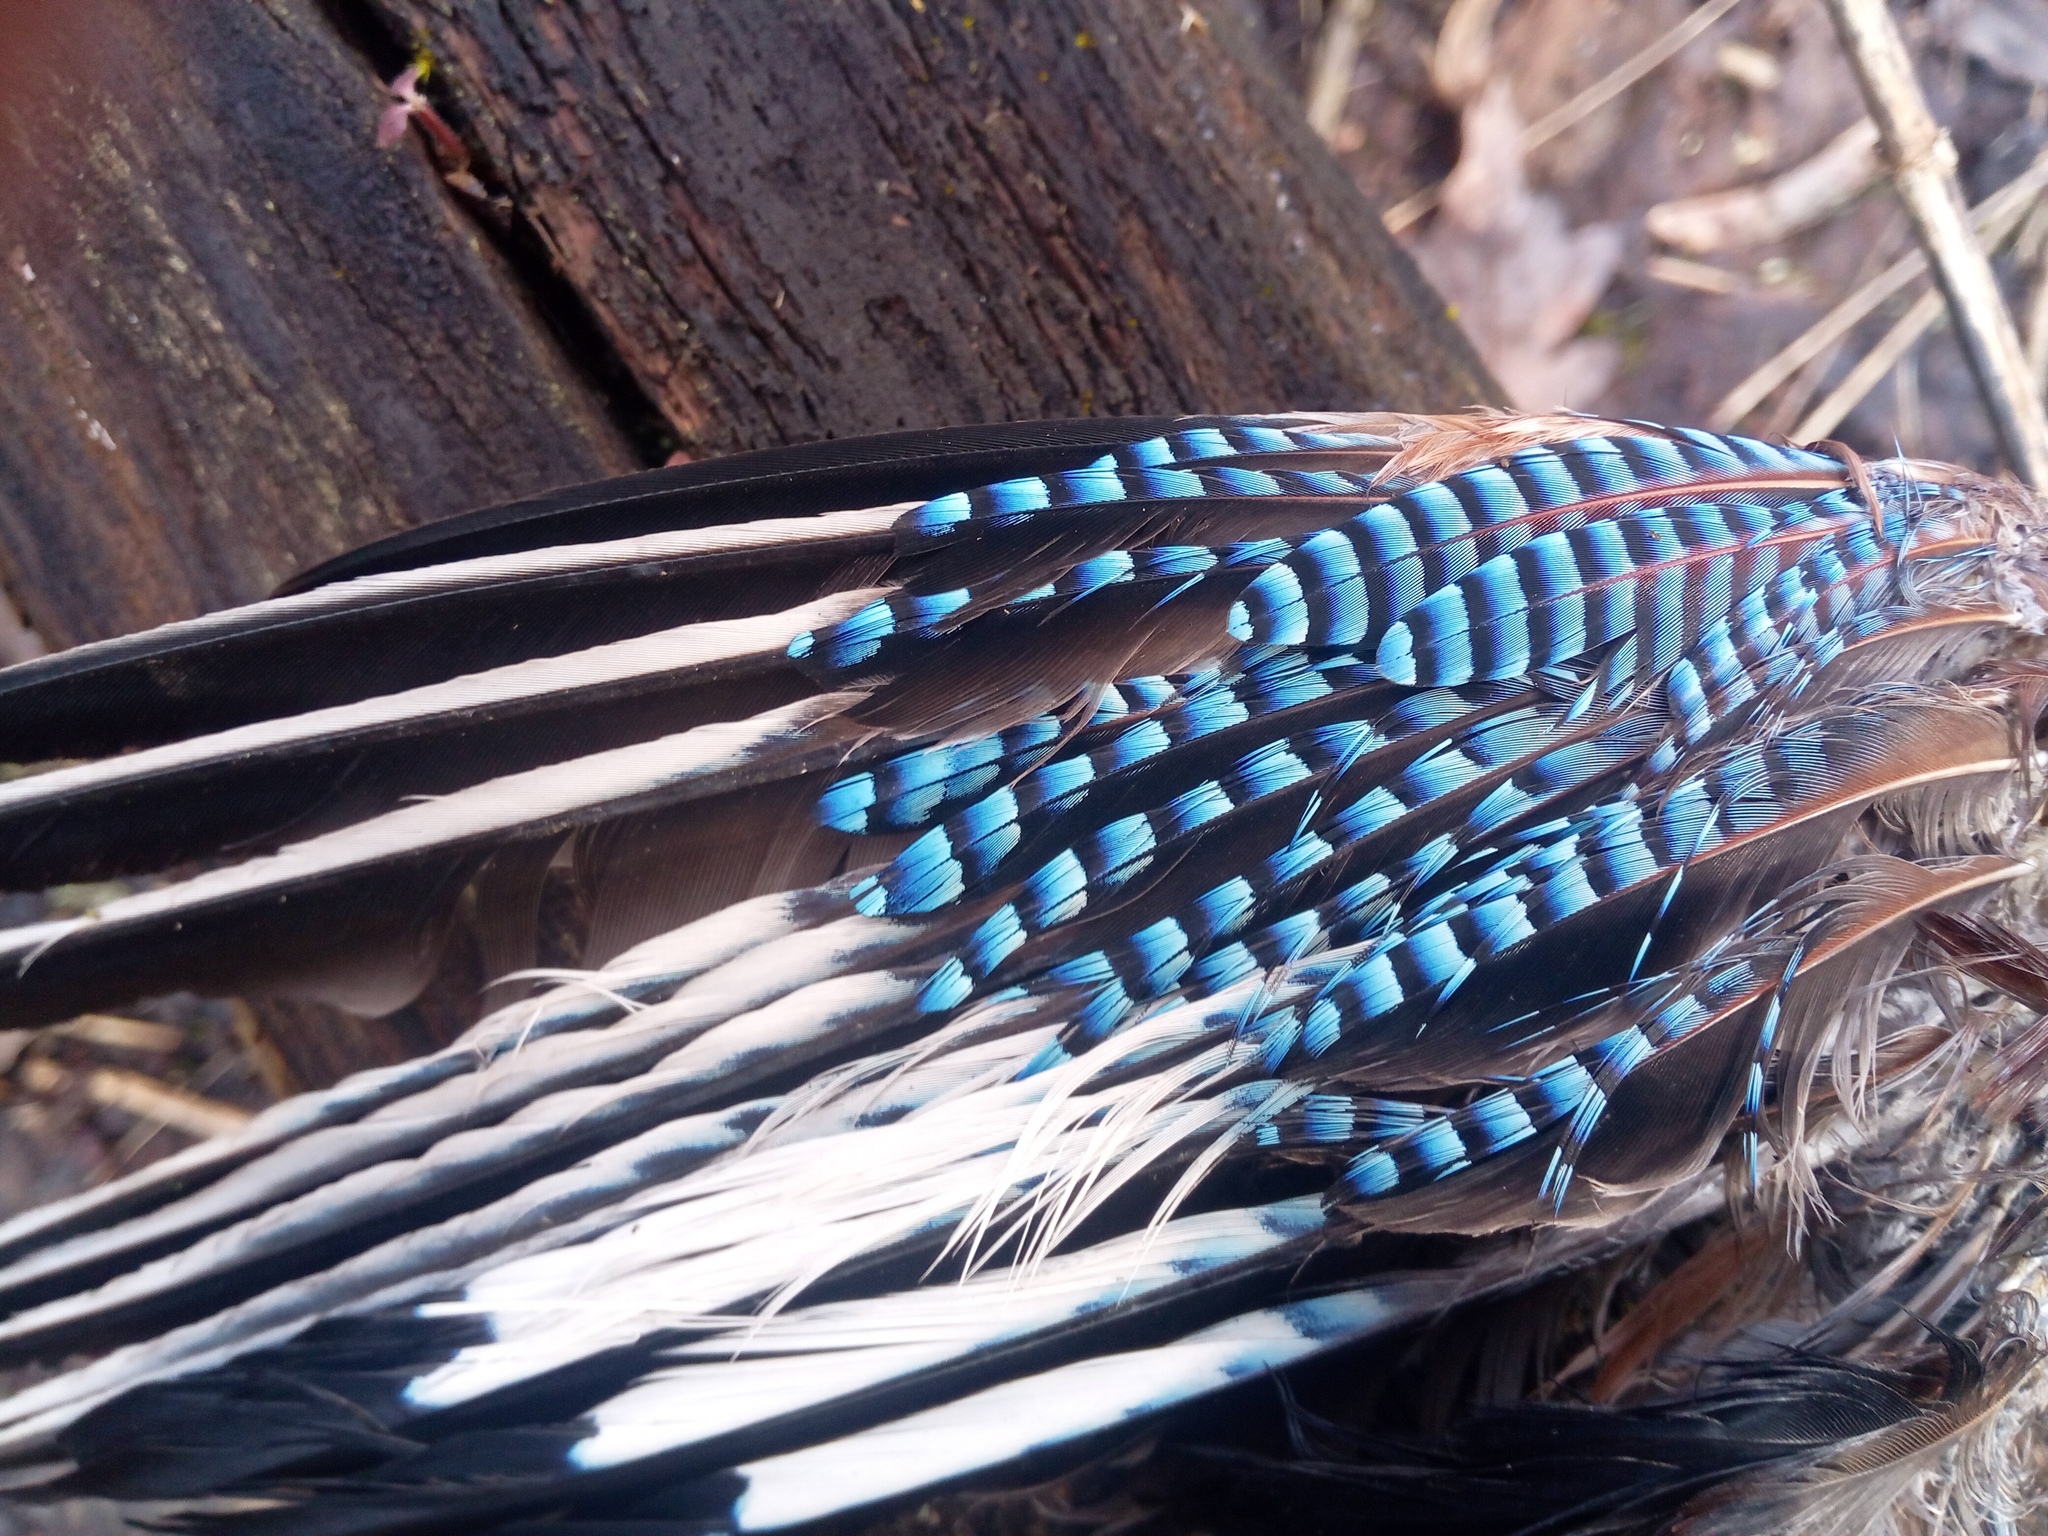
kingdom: Animalia
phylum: Chordata
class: Aves
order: Passeriformes
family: Corvidae
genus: Garrulus
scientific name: Garrulus glandarius
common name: Eurasian jay
